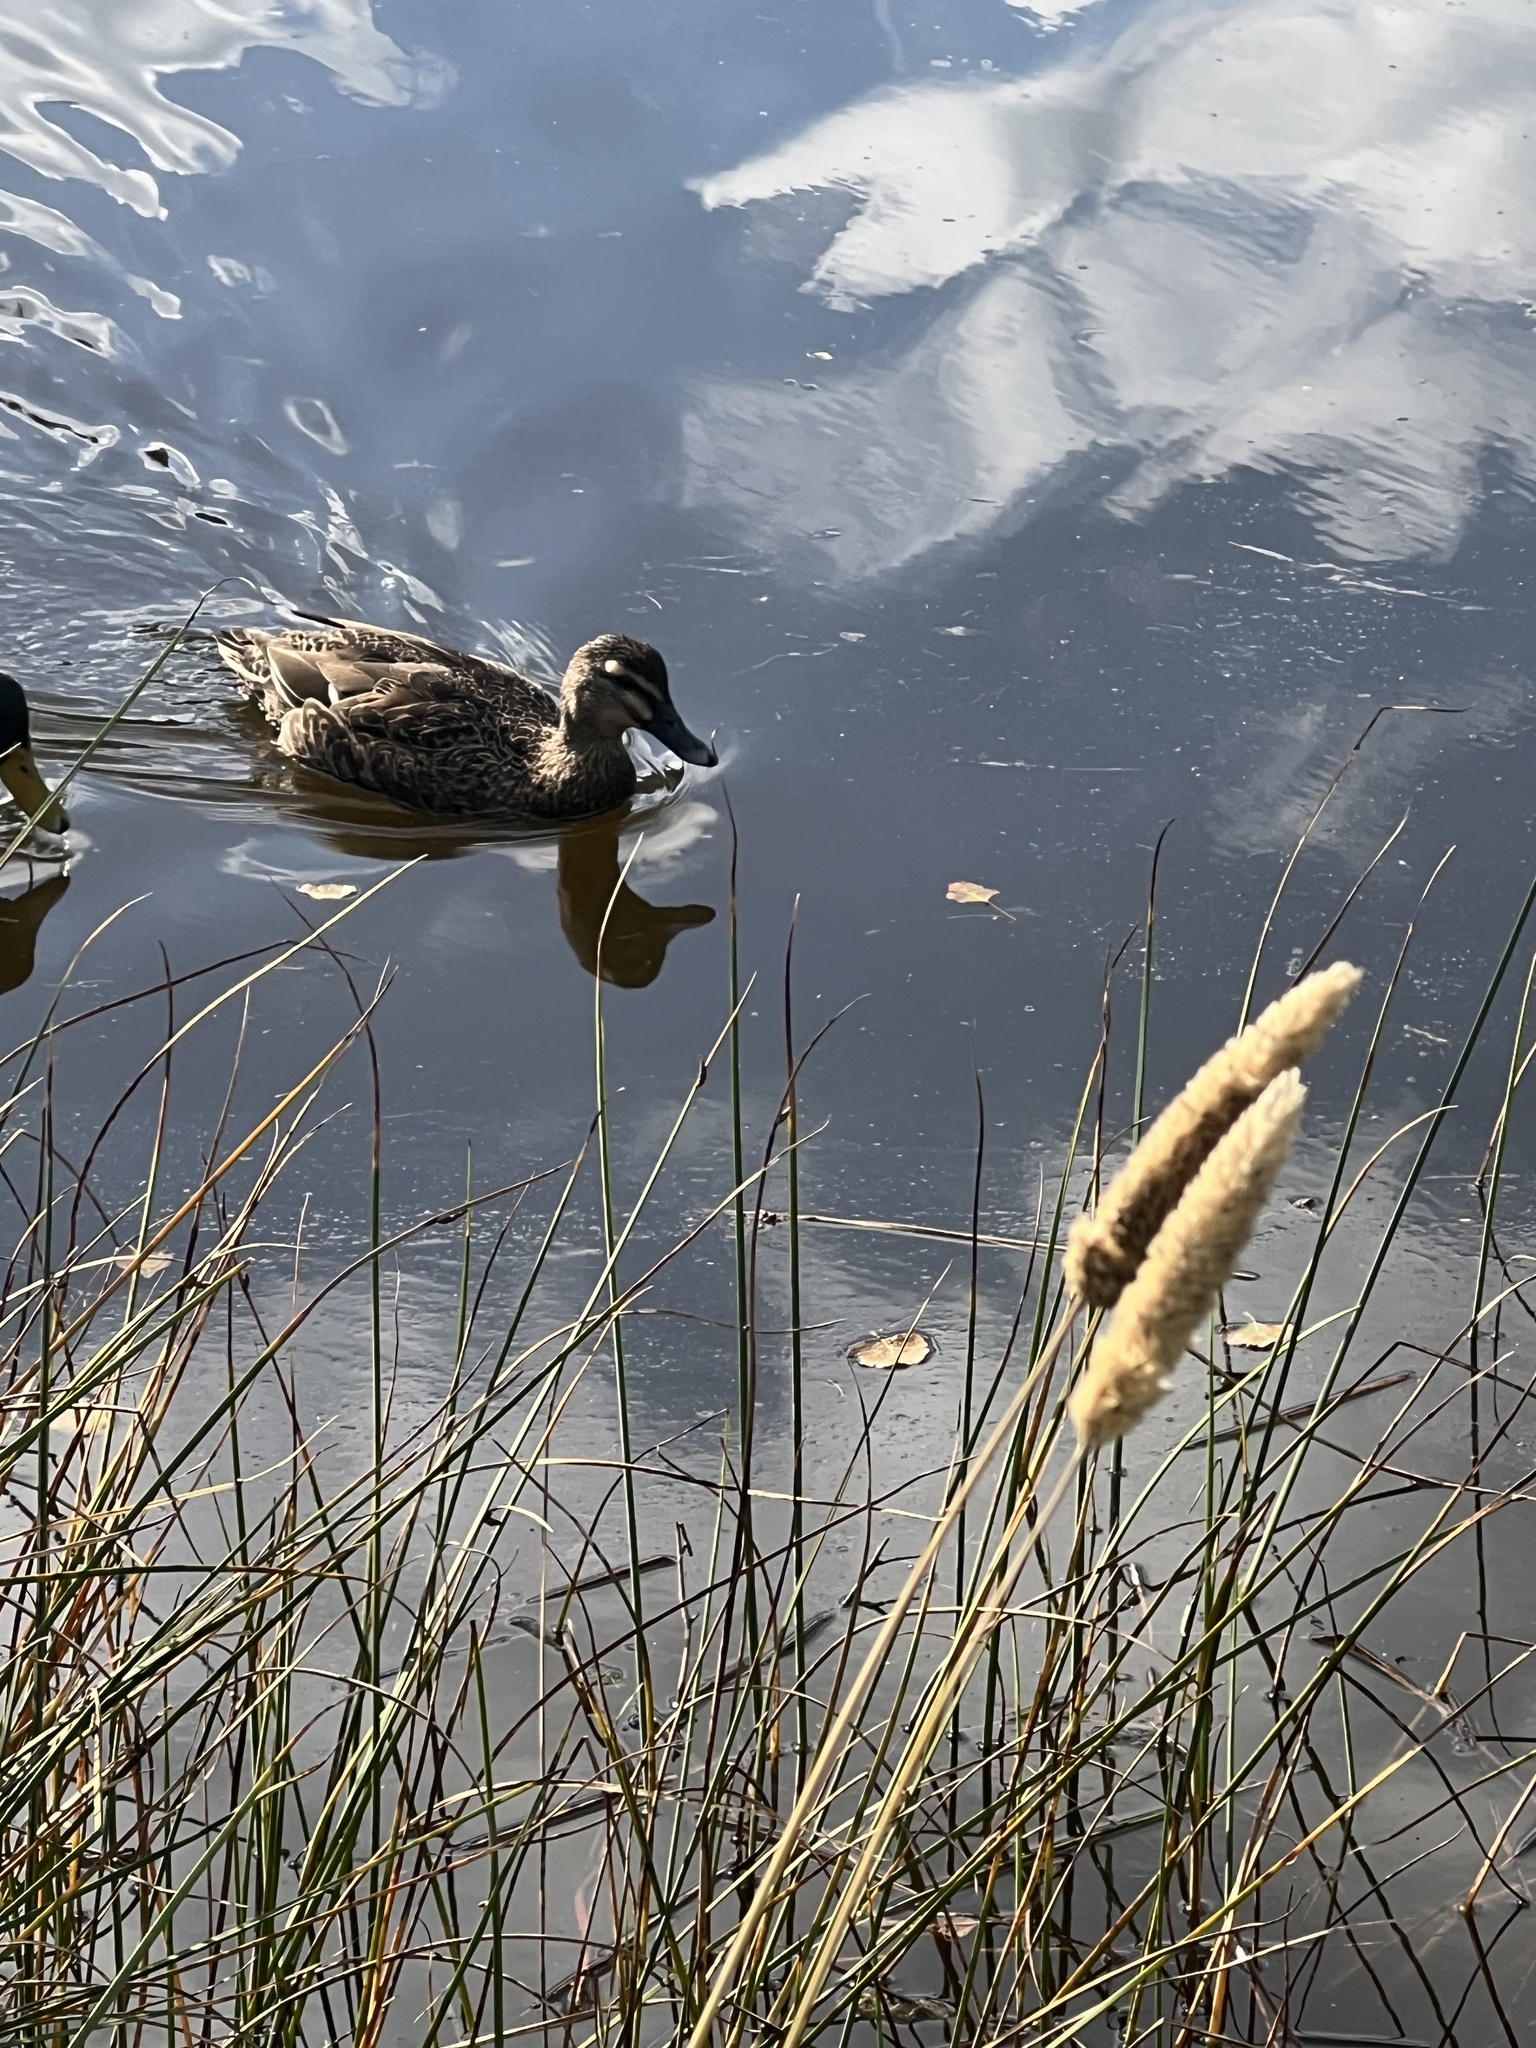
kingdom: Animalia
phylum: Chordata
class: Aves
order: Anseriformes
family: Anatidae
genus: Anas
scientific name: Anas
